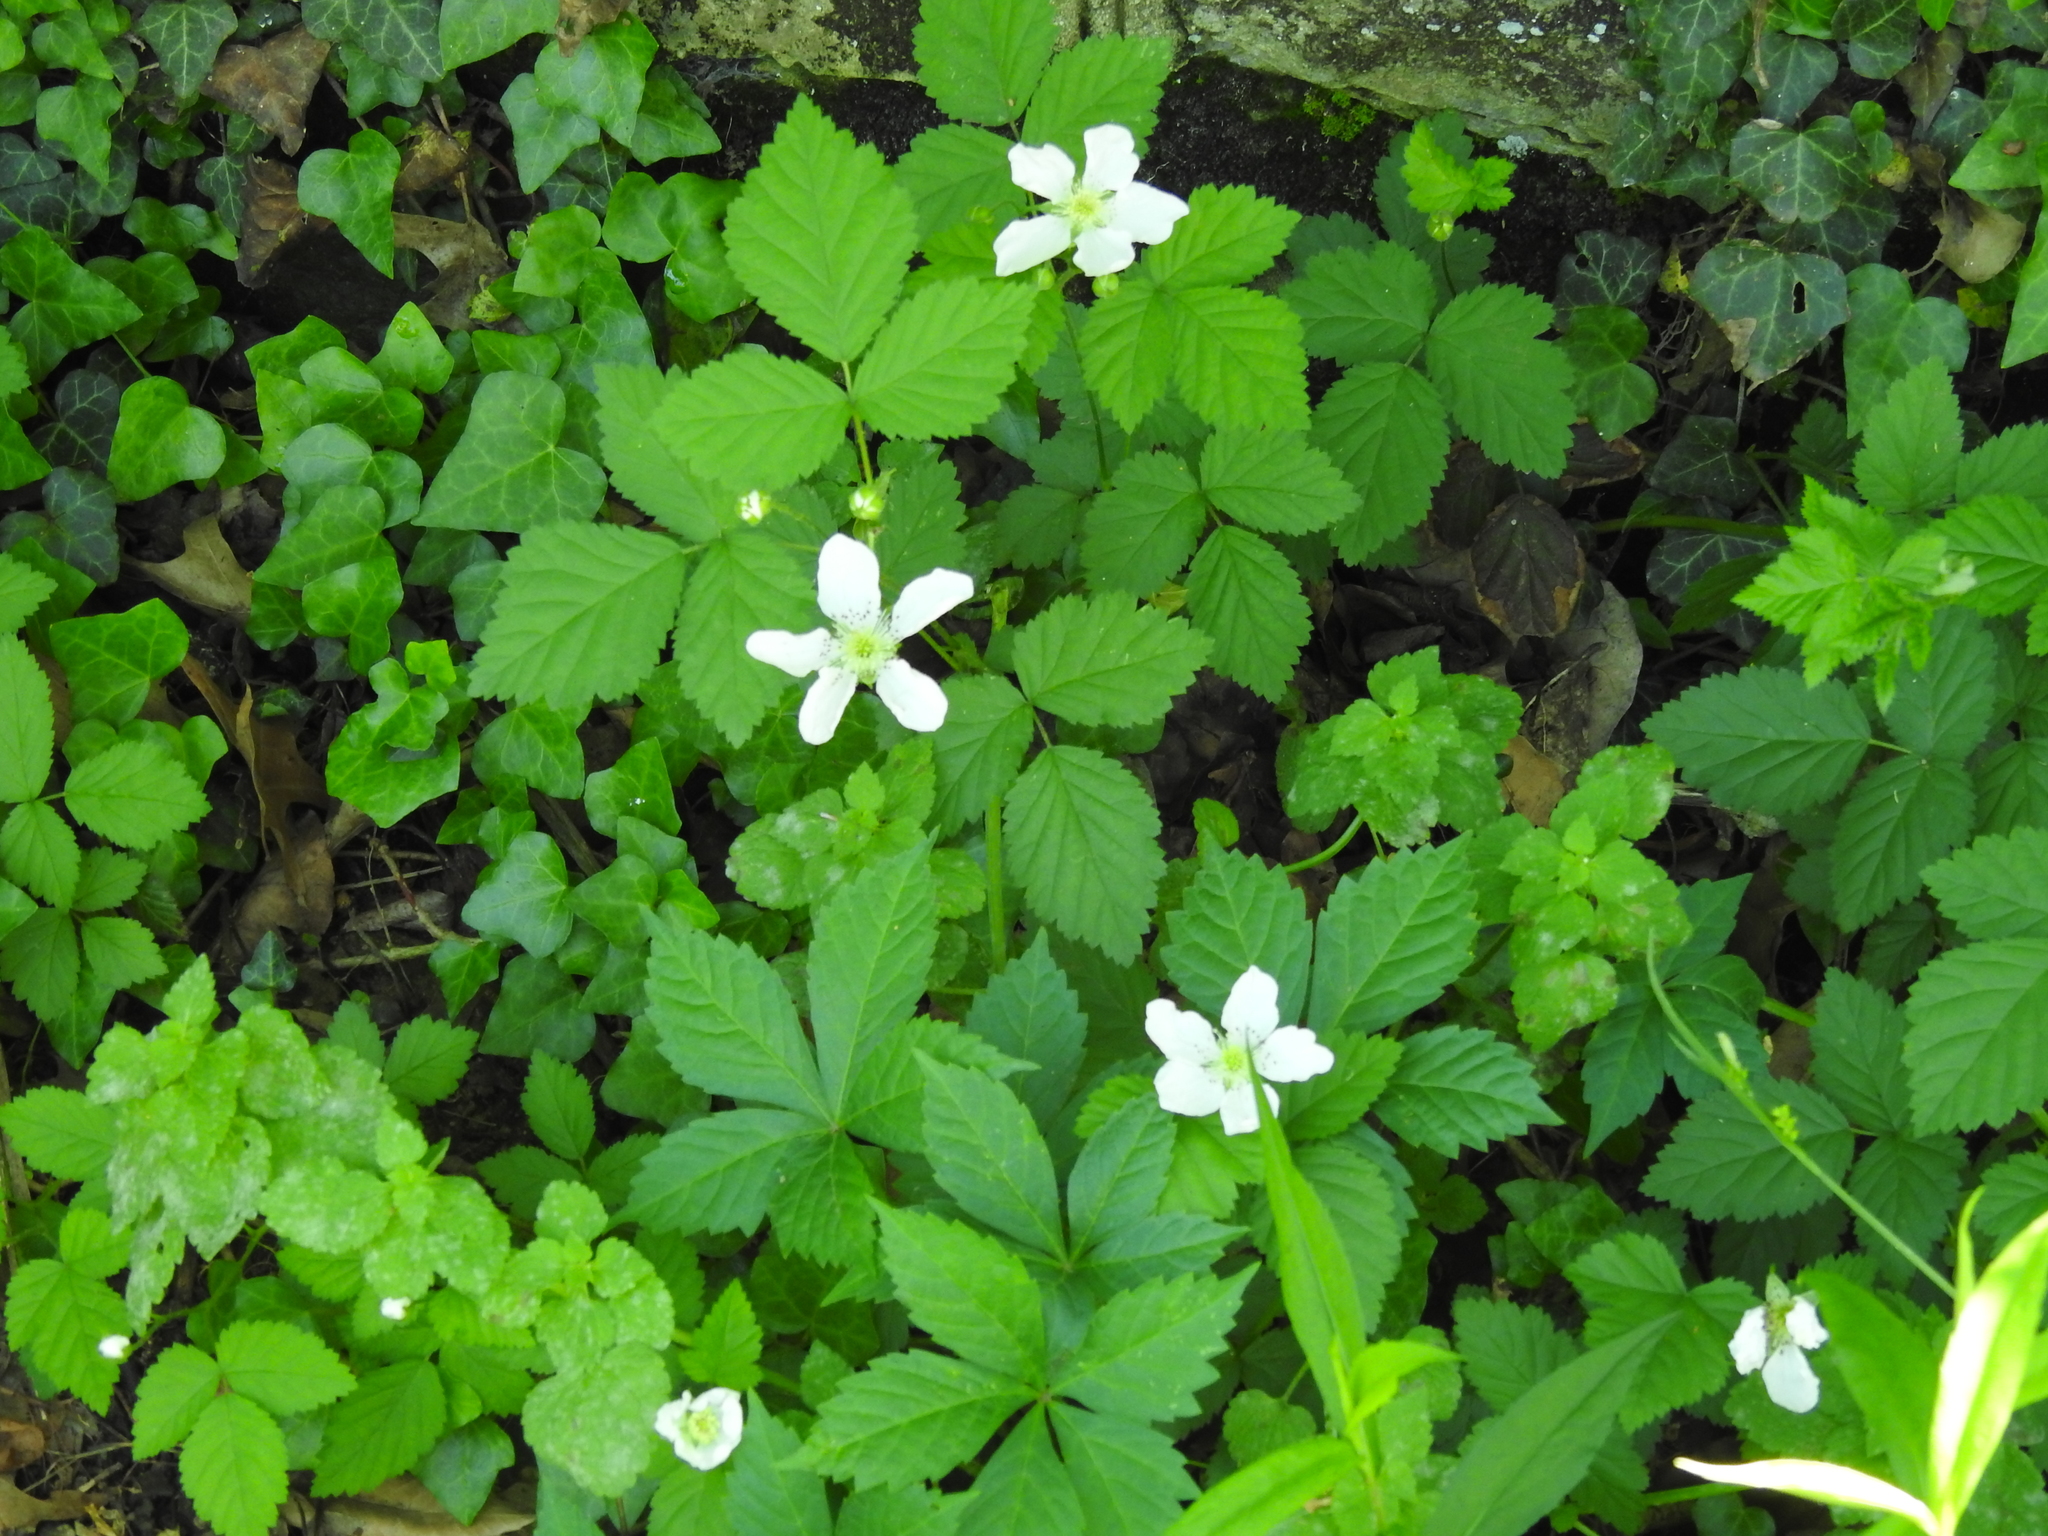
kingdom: Plantae
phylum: Tracheophyta
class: Magnoliopsida
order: Rosales
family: Rosaceae
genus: Rubus
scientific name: Rubus allegheniensis
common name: Allegheny blackberry
